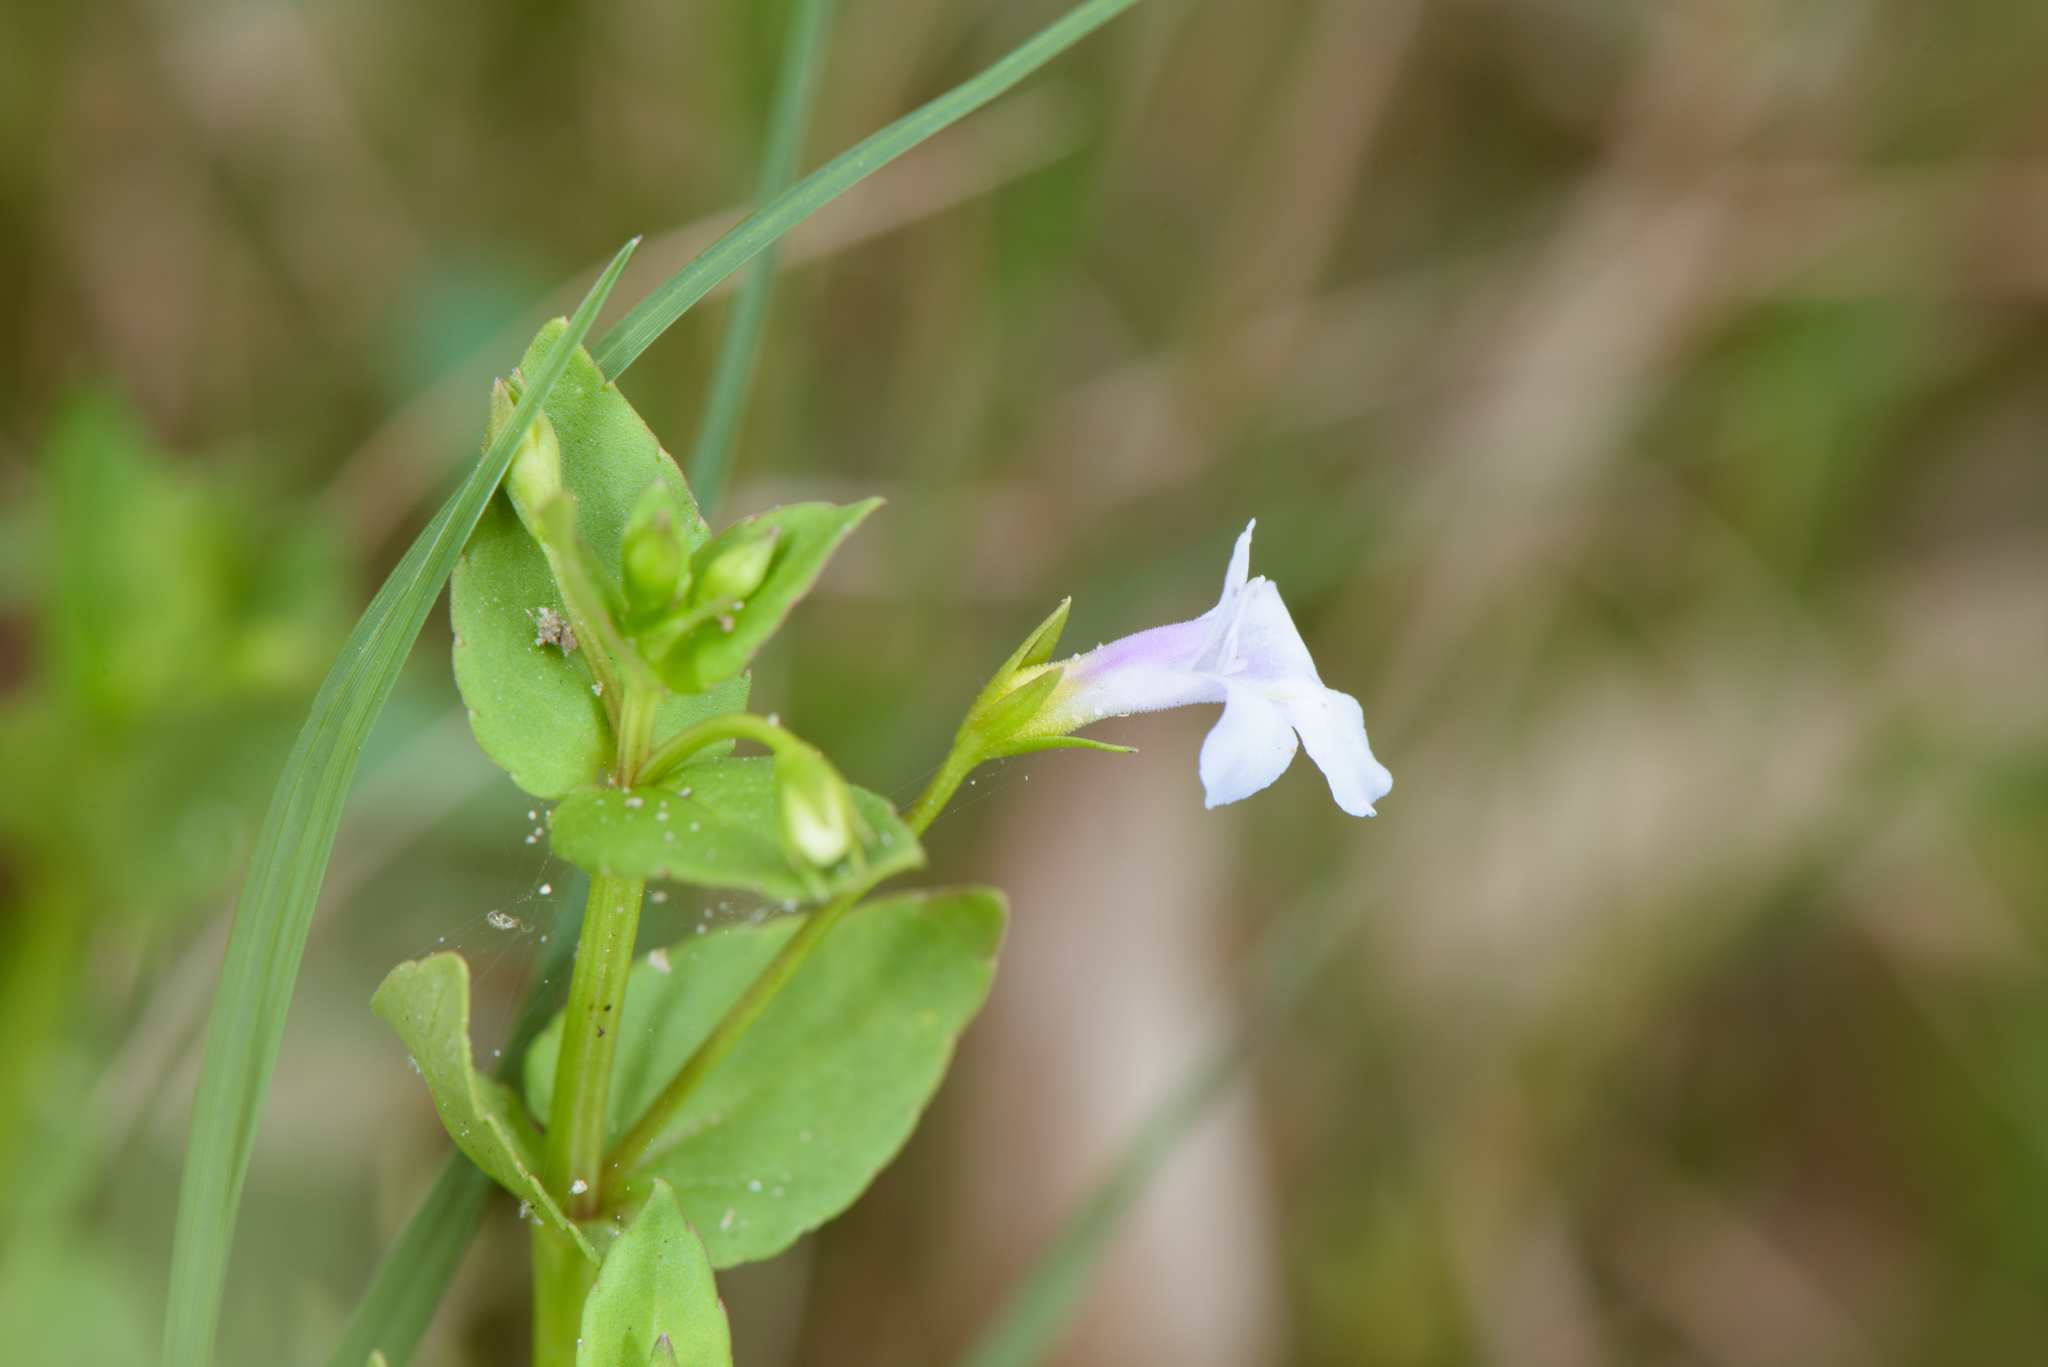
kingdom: Plantae
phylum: Tracheophyta
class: Magnoliopsida
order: Lamiales
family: Linderniaceae
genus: Torenia
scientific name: Torenia anagallis
